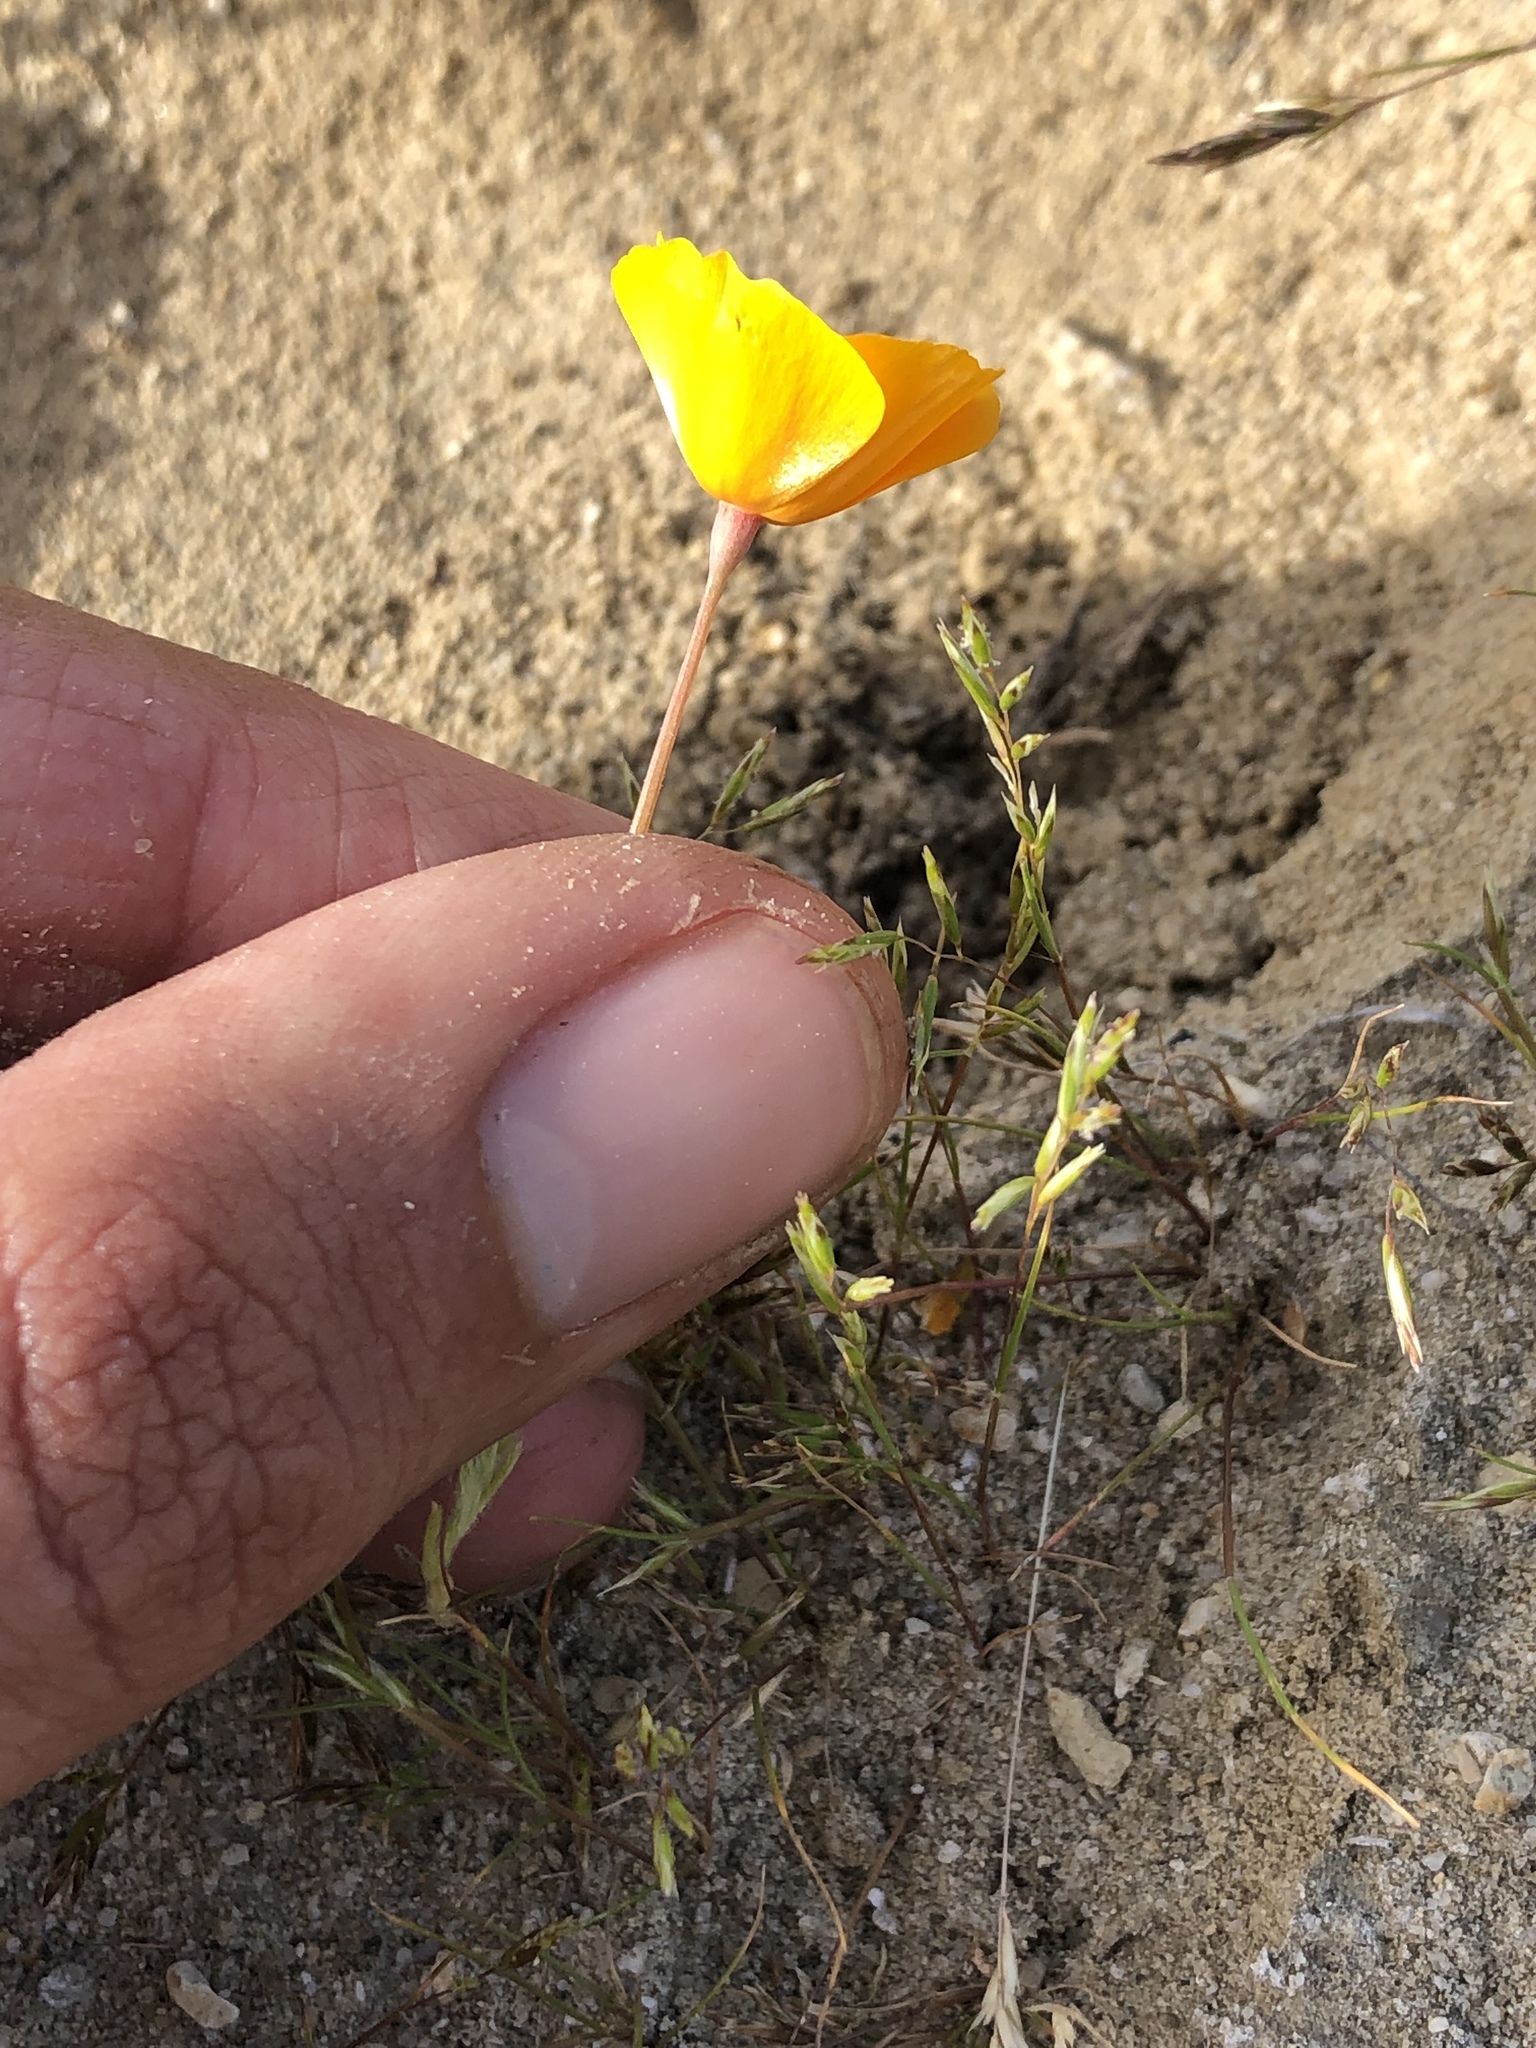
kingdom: Plantae
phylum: Tracheophyta
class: Magnoliopsida
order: Ranunculales
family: Papaveraceae
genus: Eschscholzia
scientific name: Eschscholzia lemmonii
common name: Lemmon's poppy
